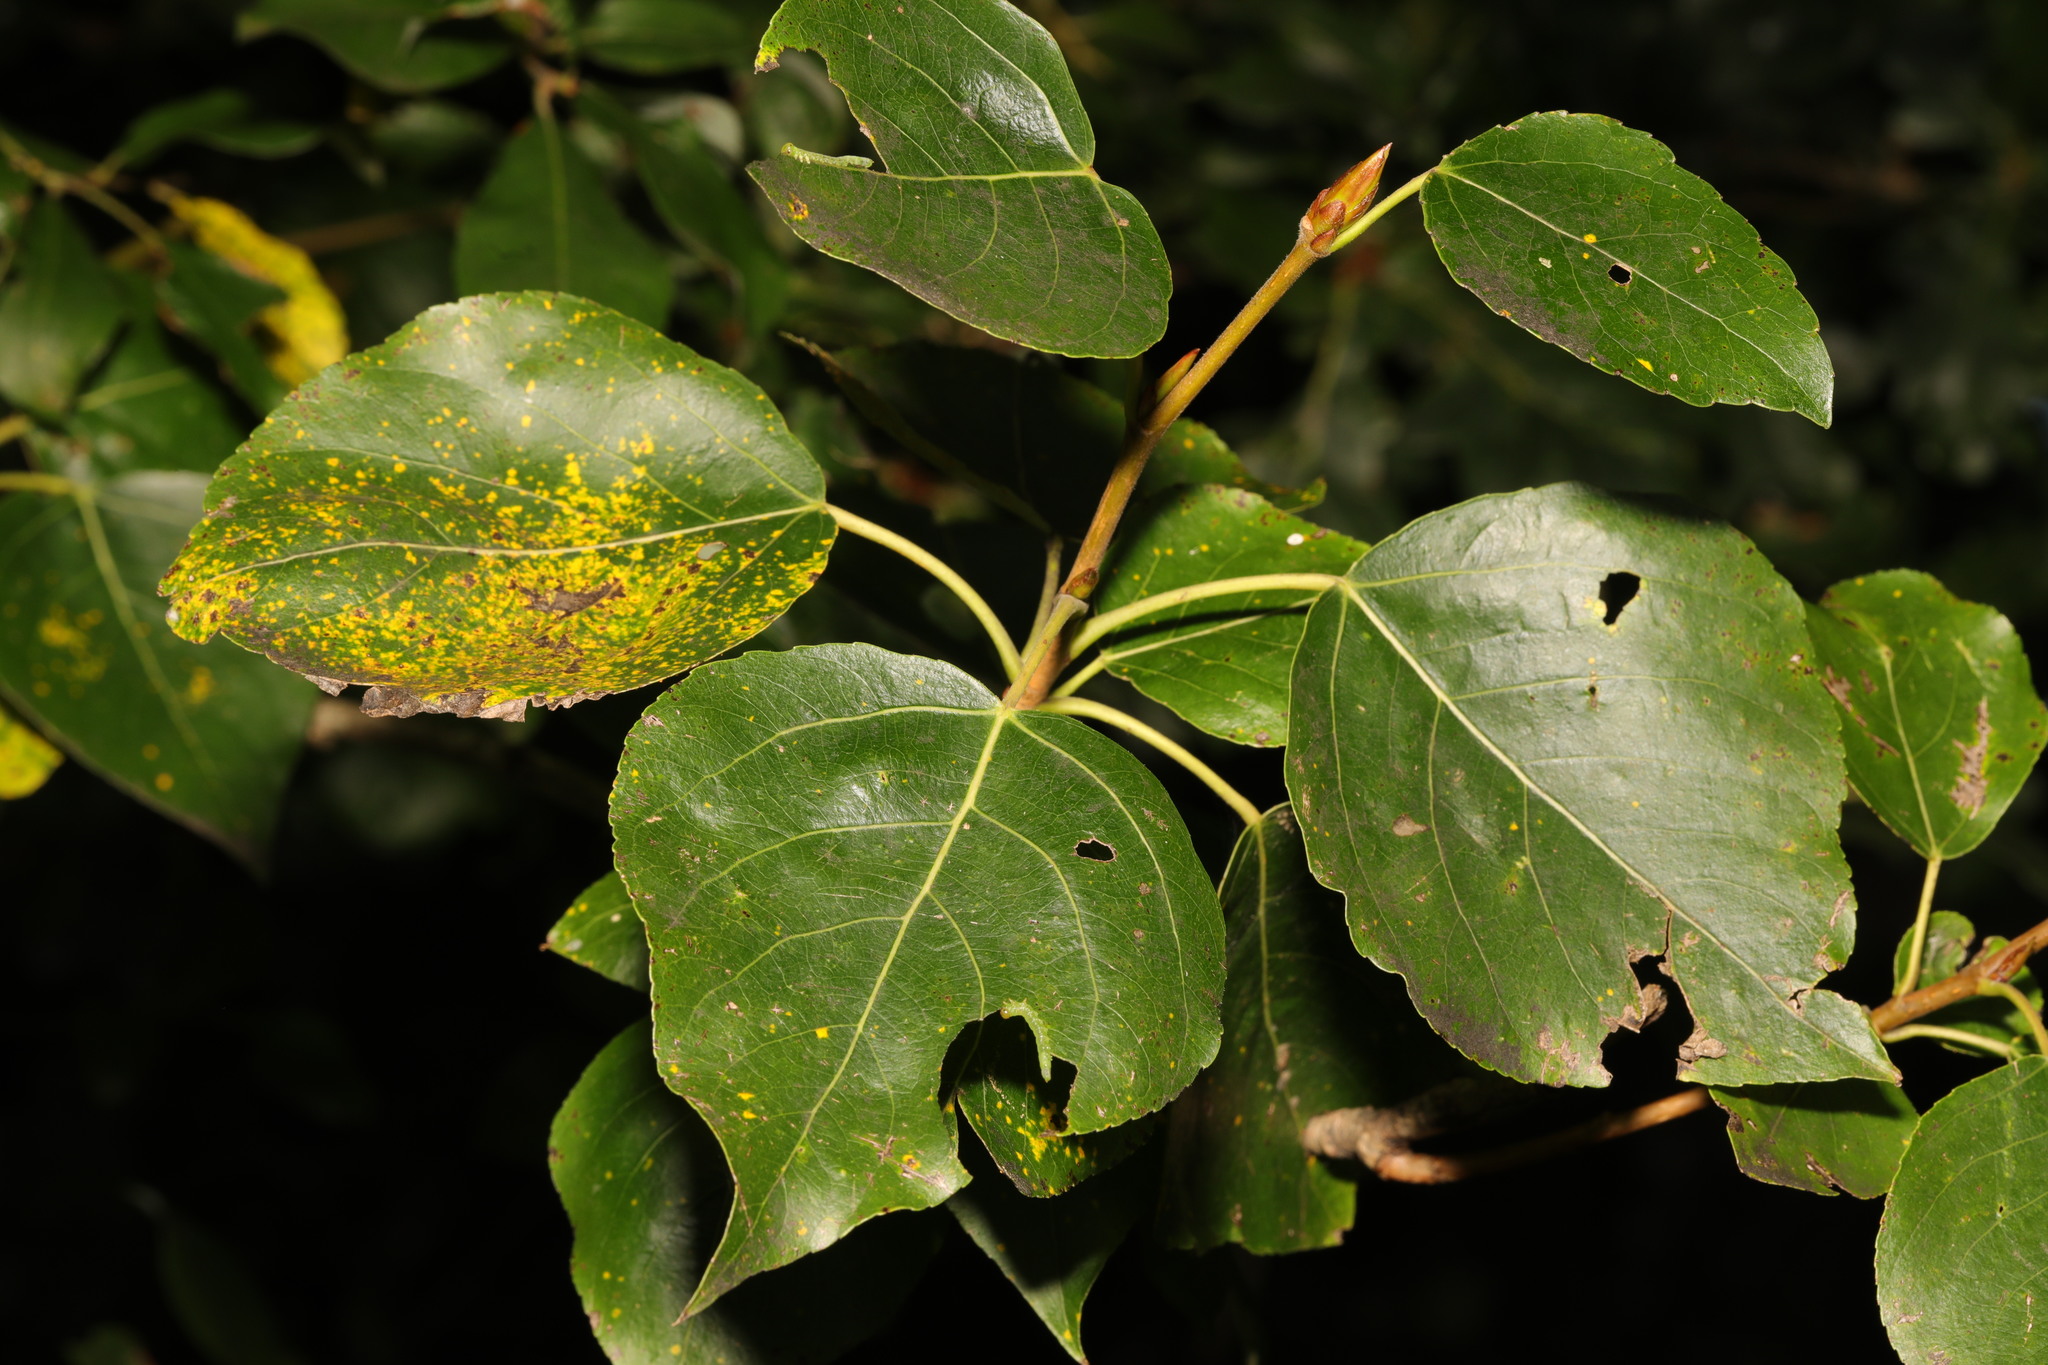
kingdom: Plantae
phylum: Tracheophyta
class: Magnoliopsida
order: Malpighiales
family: Salicaceae
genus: Populus
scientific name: Populus hastata
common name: Black cottonwood
